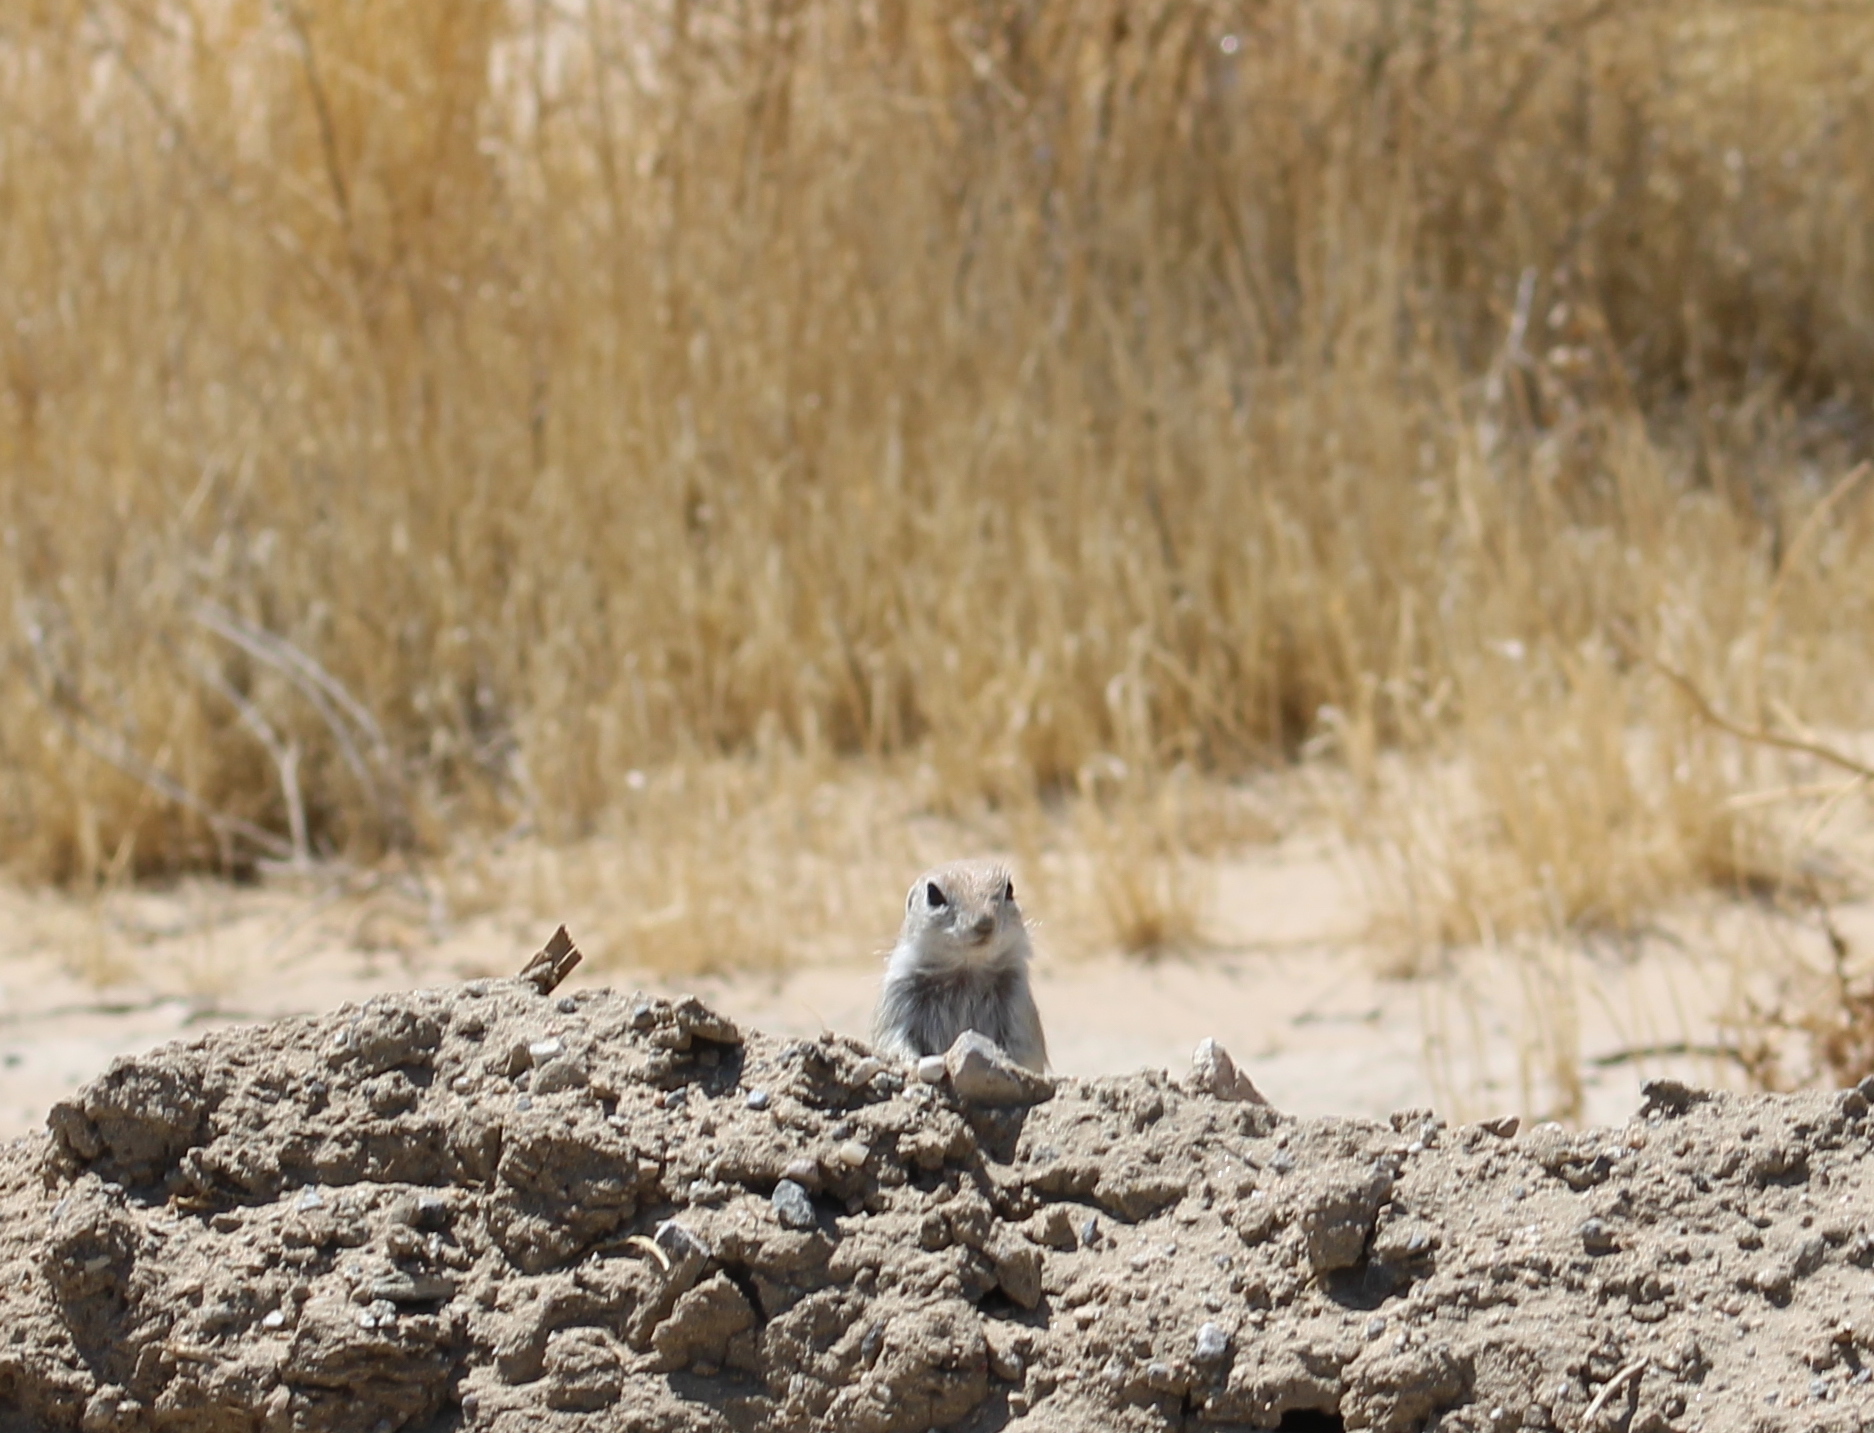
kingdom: Animalia
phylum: Chordata
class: Mammalia
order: Rodentia
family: Sciuridae
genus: Xerospermophilus
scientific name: Xerospermophilus mohavensis
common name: Mohave ground squirrel
